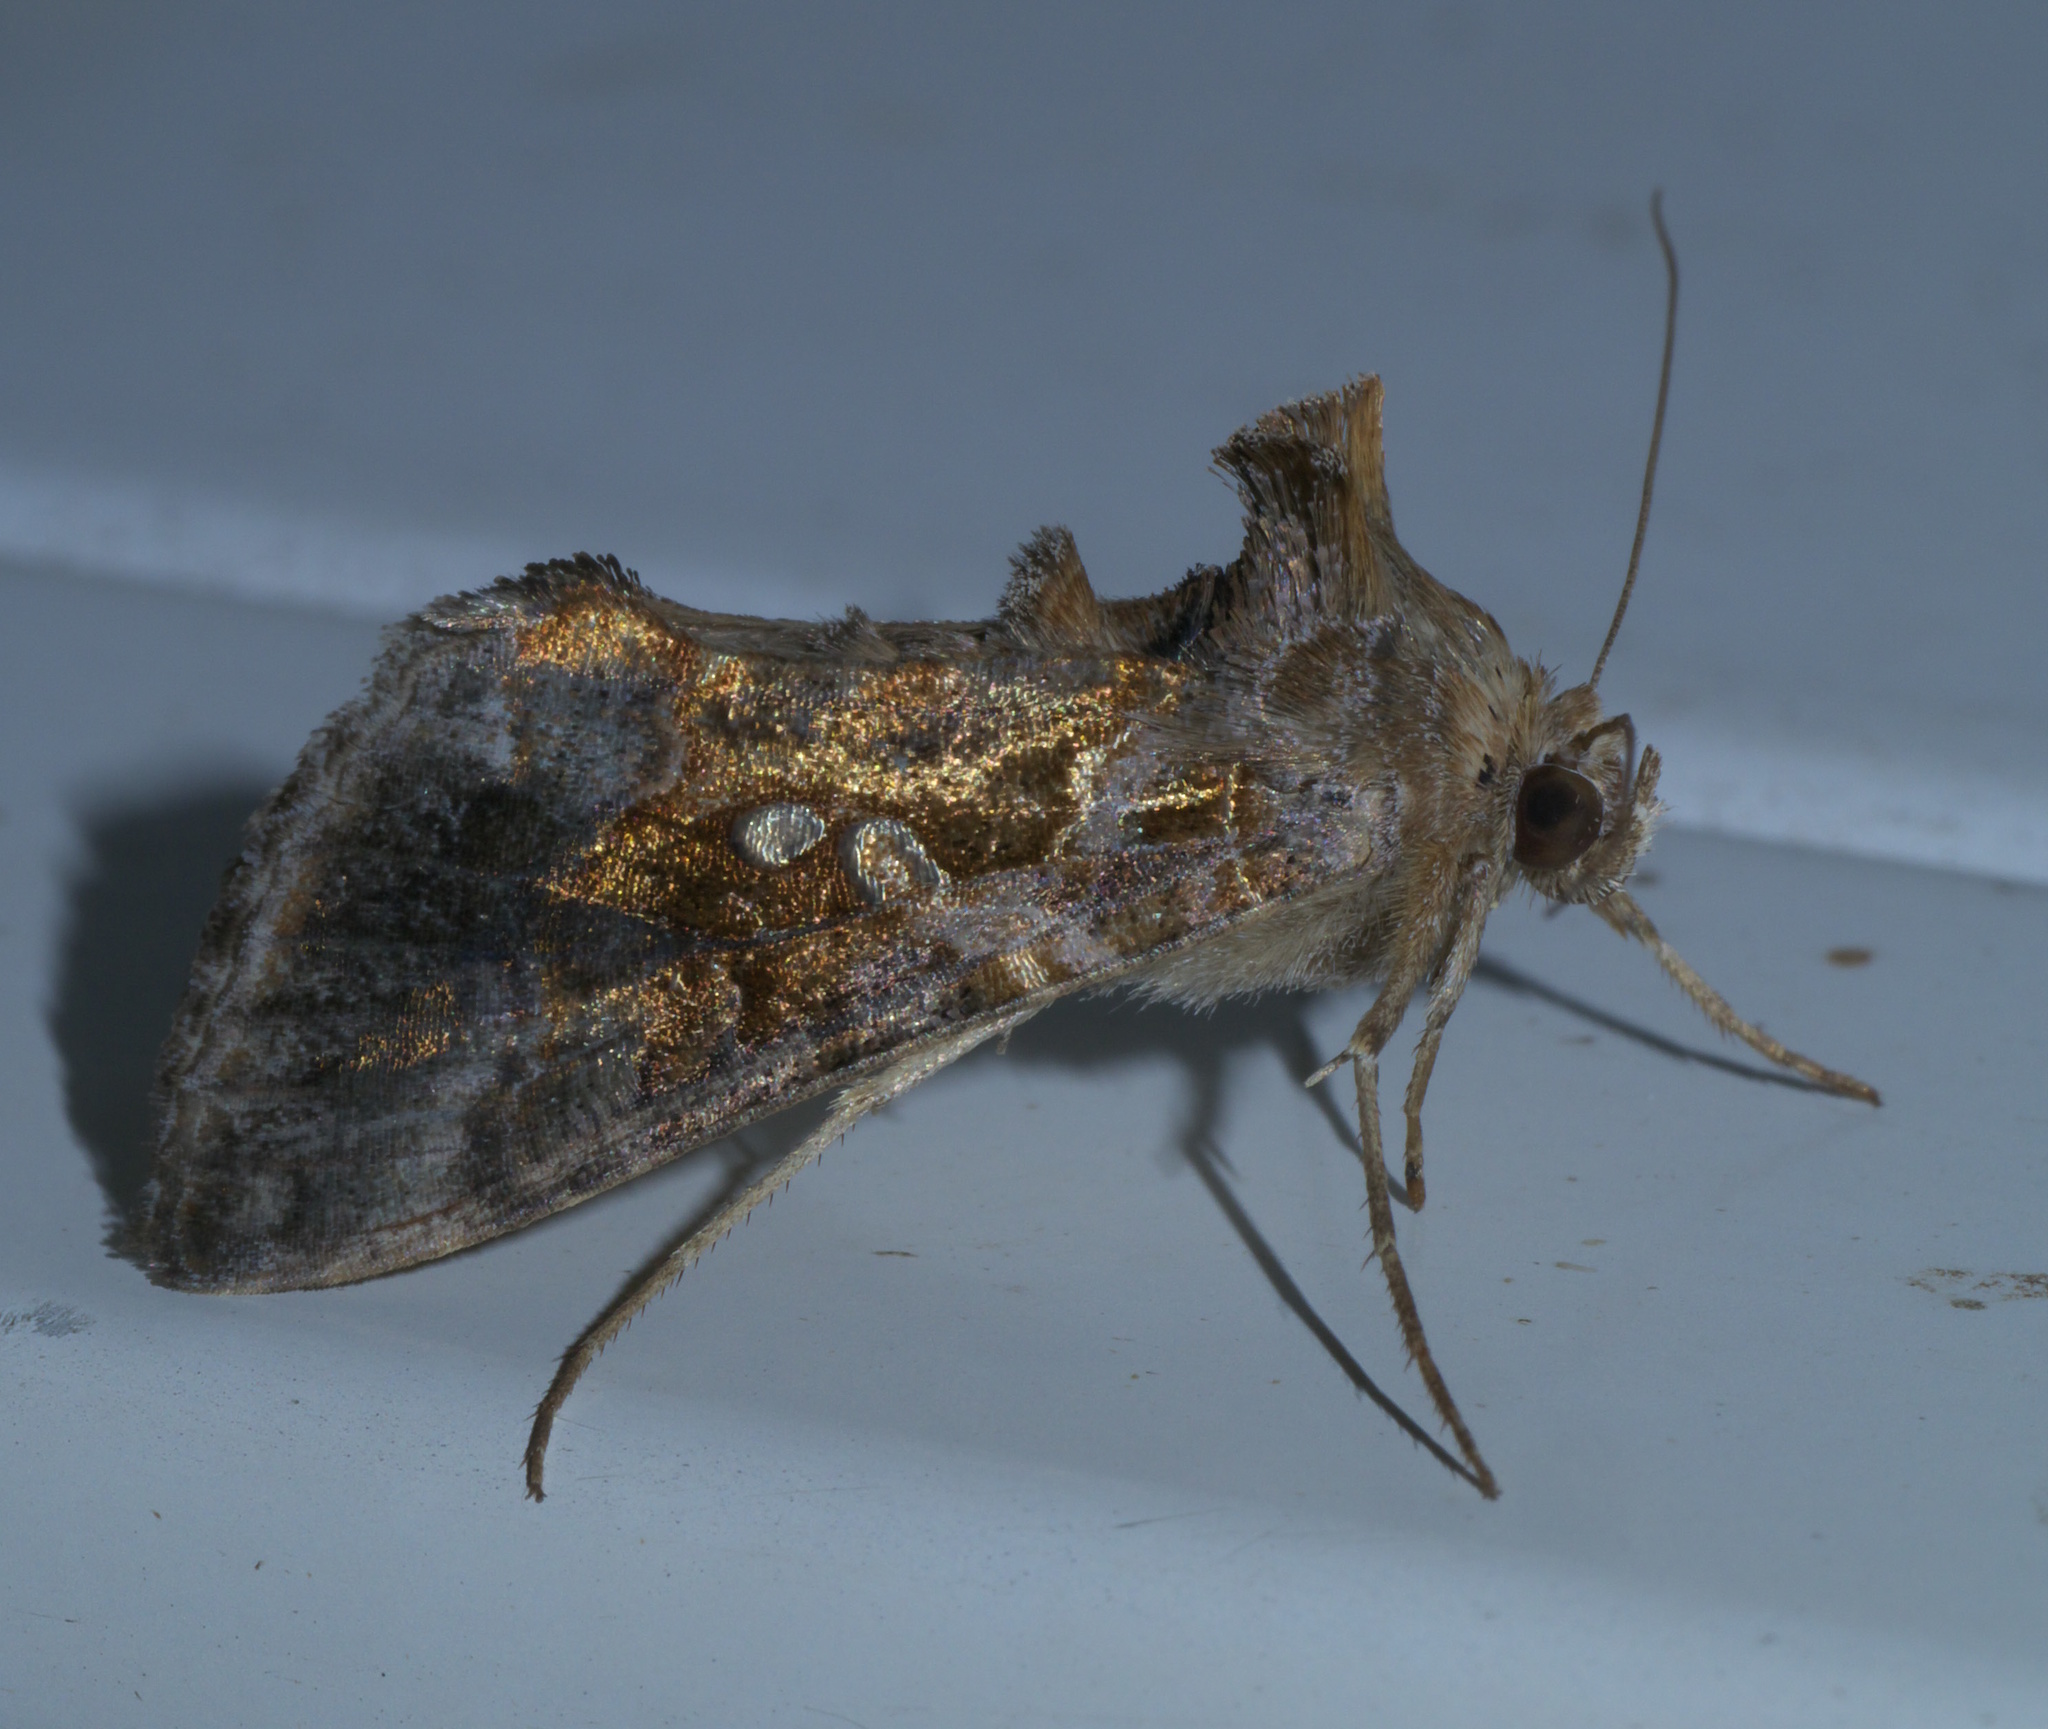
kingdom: Animalia
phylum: Arthropoda
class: Insecta
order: Lepidoptera
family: Noctuidae
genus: Chrysodeixis
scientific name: Chrysodeixis includens
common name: Cutworm moth
